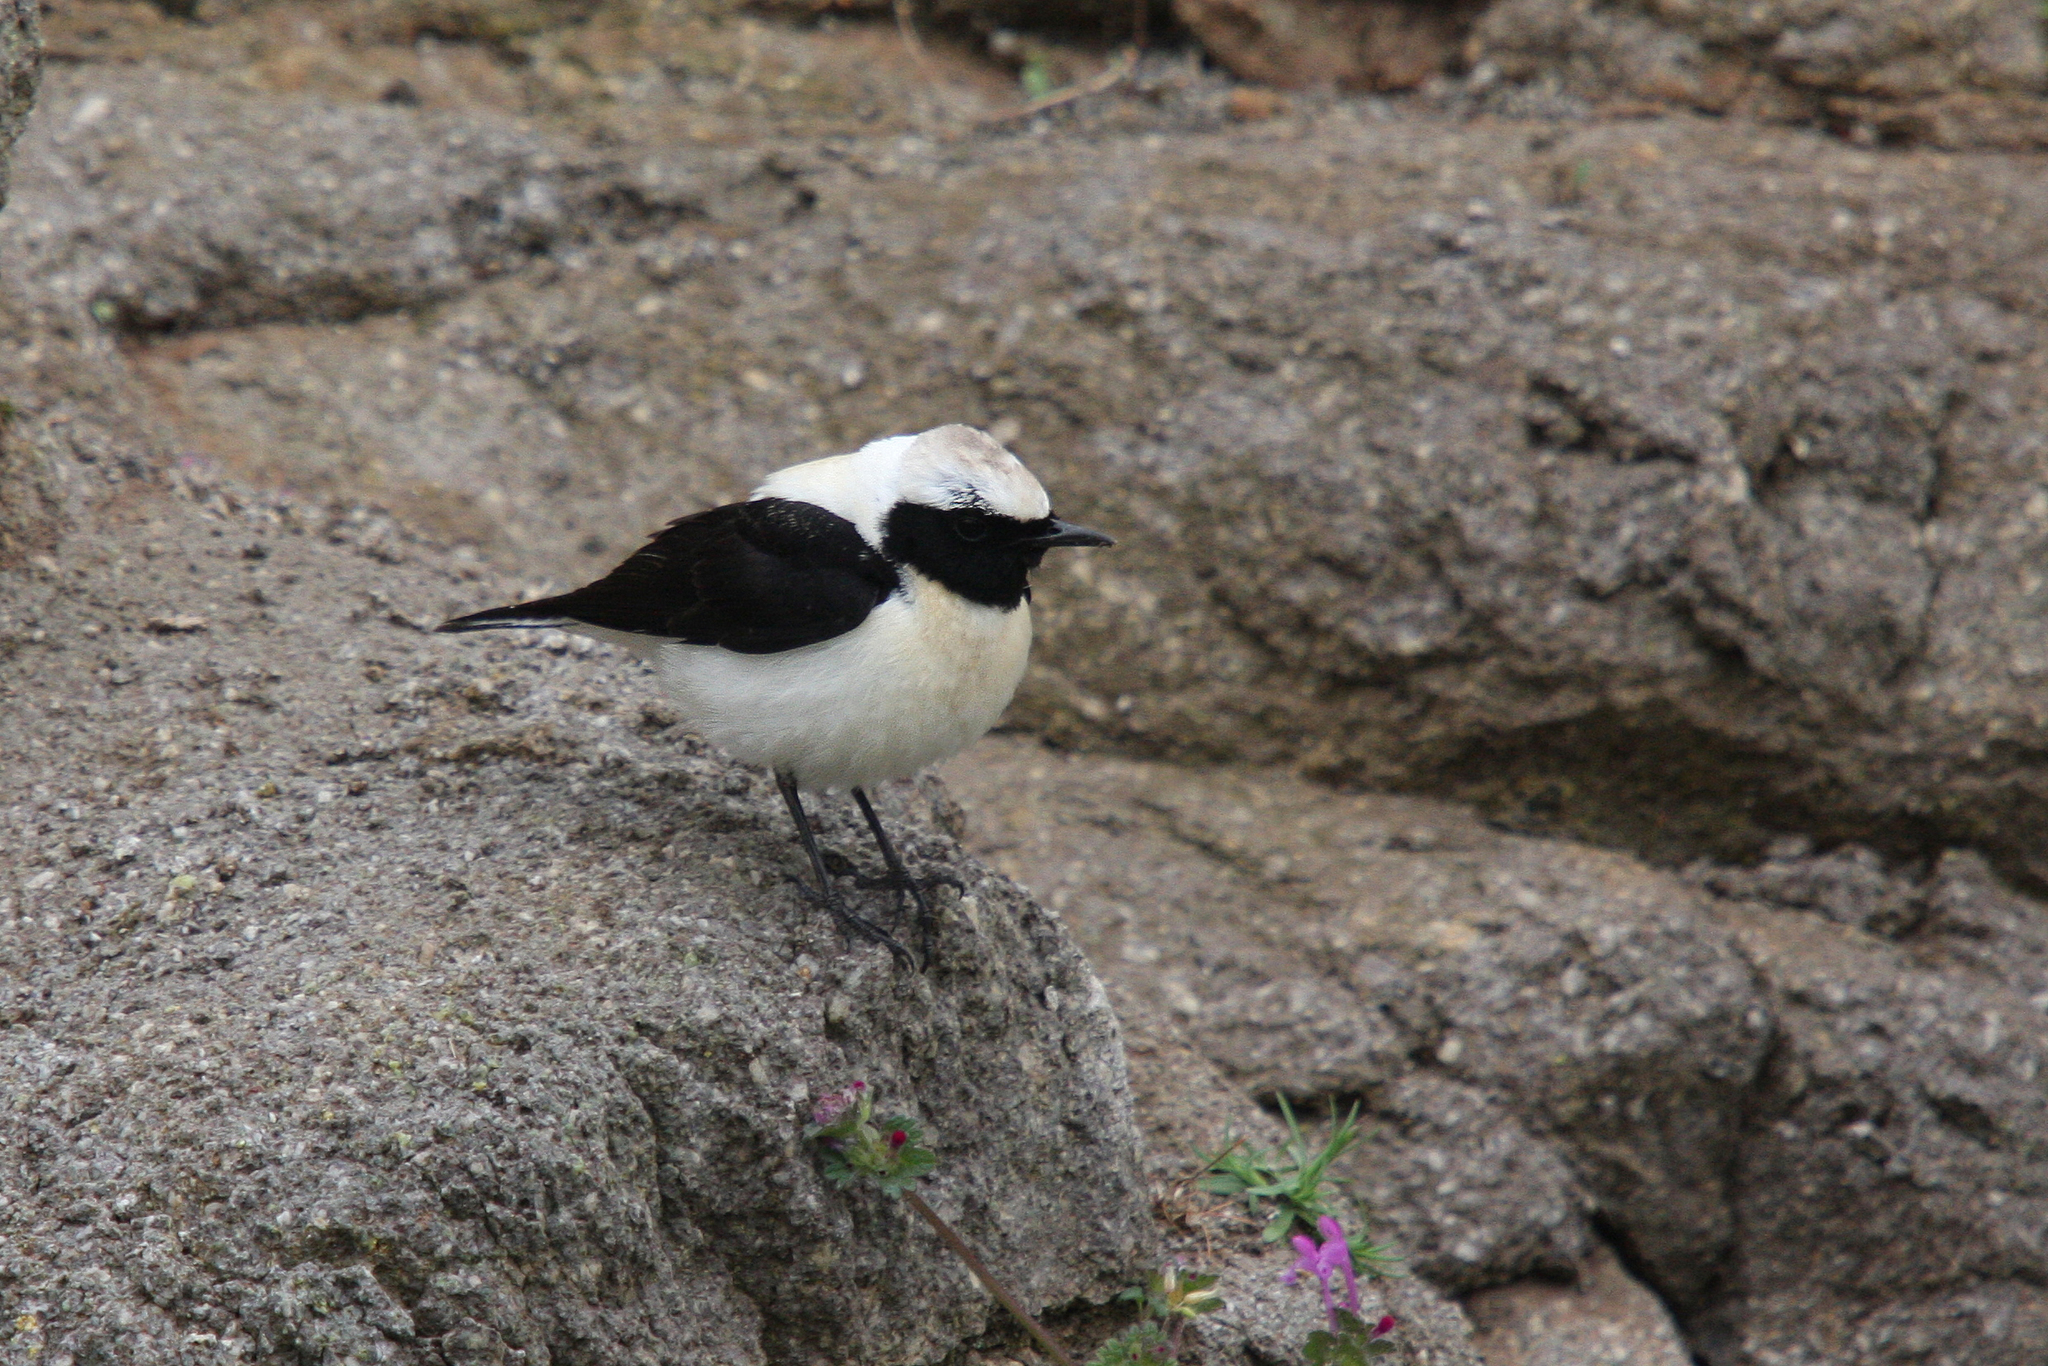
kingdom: Animalia
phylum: Chordata
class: Aves
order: Passeriformes
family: Muscicapidae
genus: Oenanthe
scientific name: Oenanthe hispanica
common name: Black-eared wheatear
